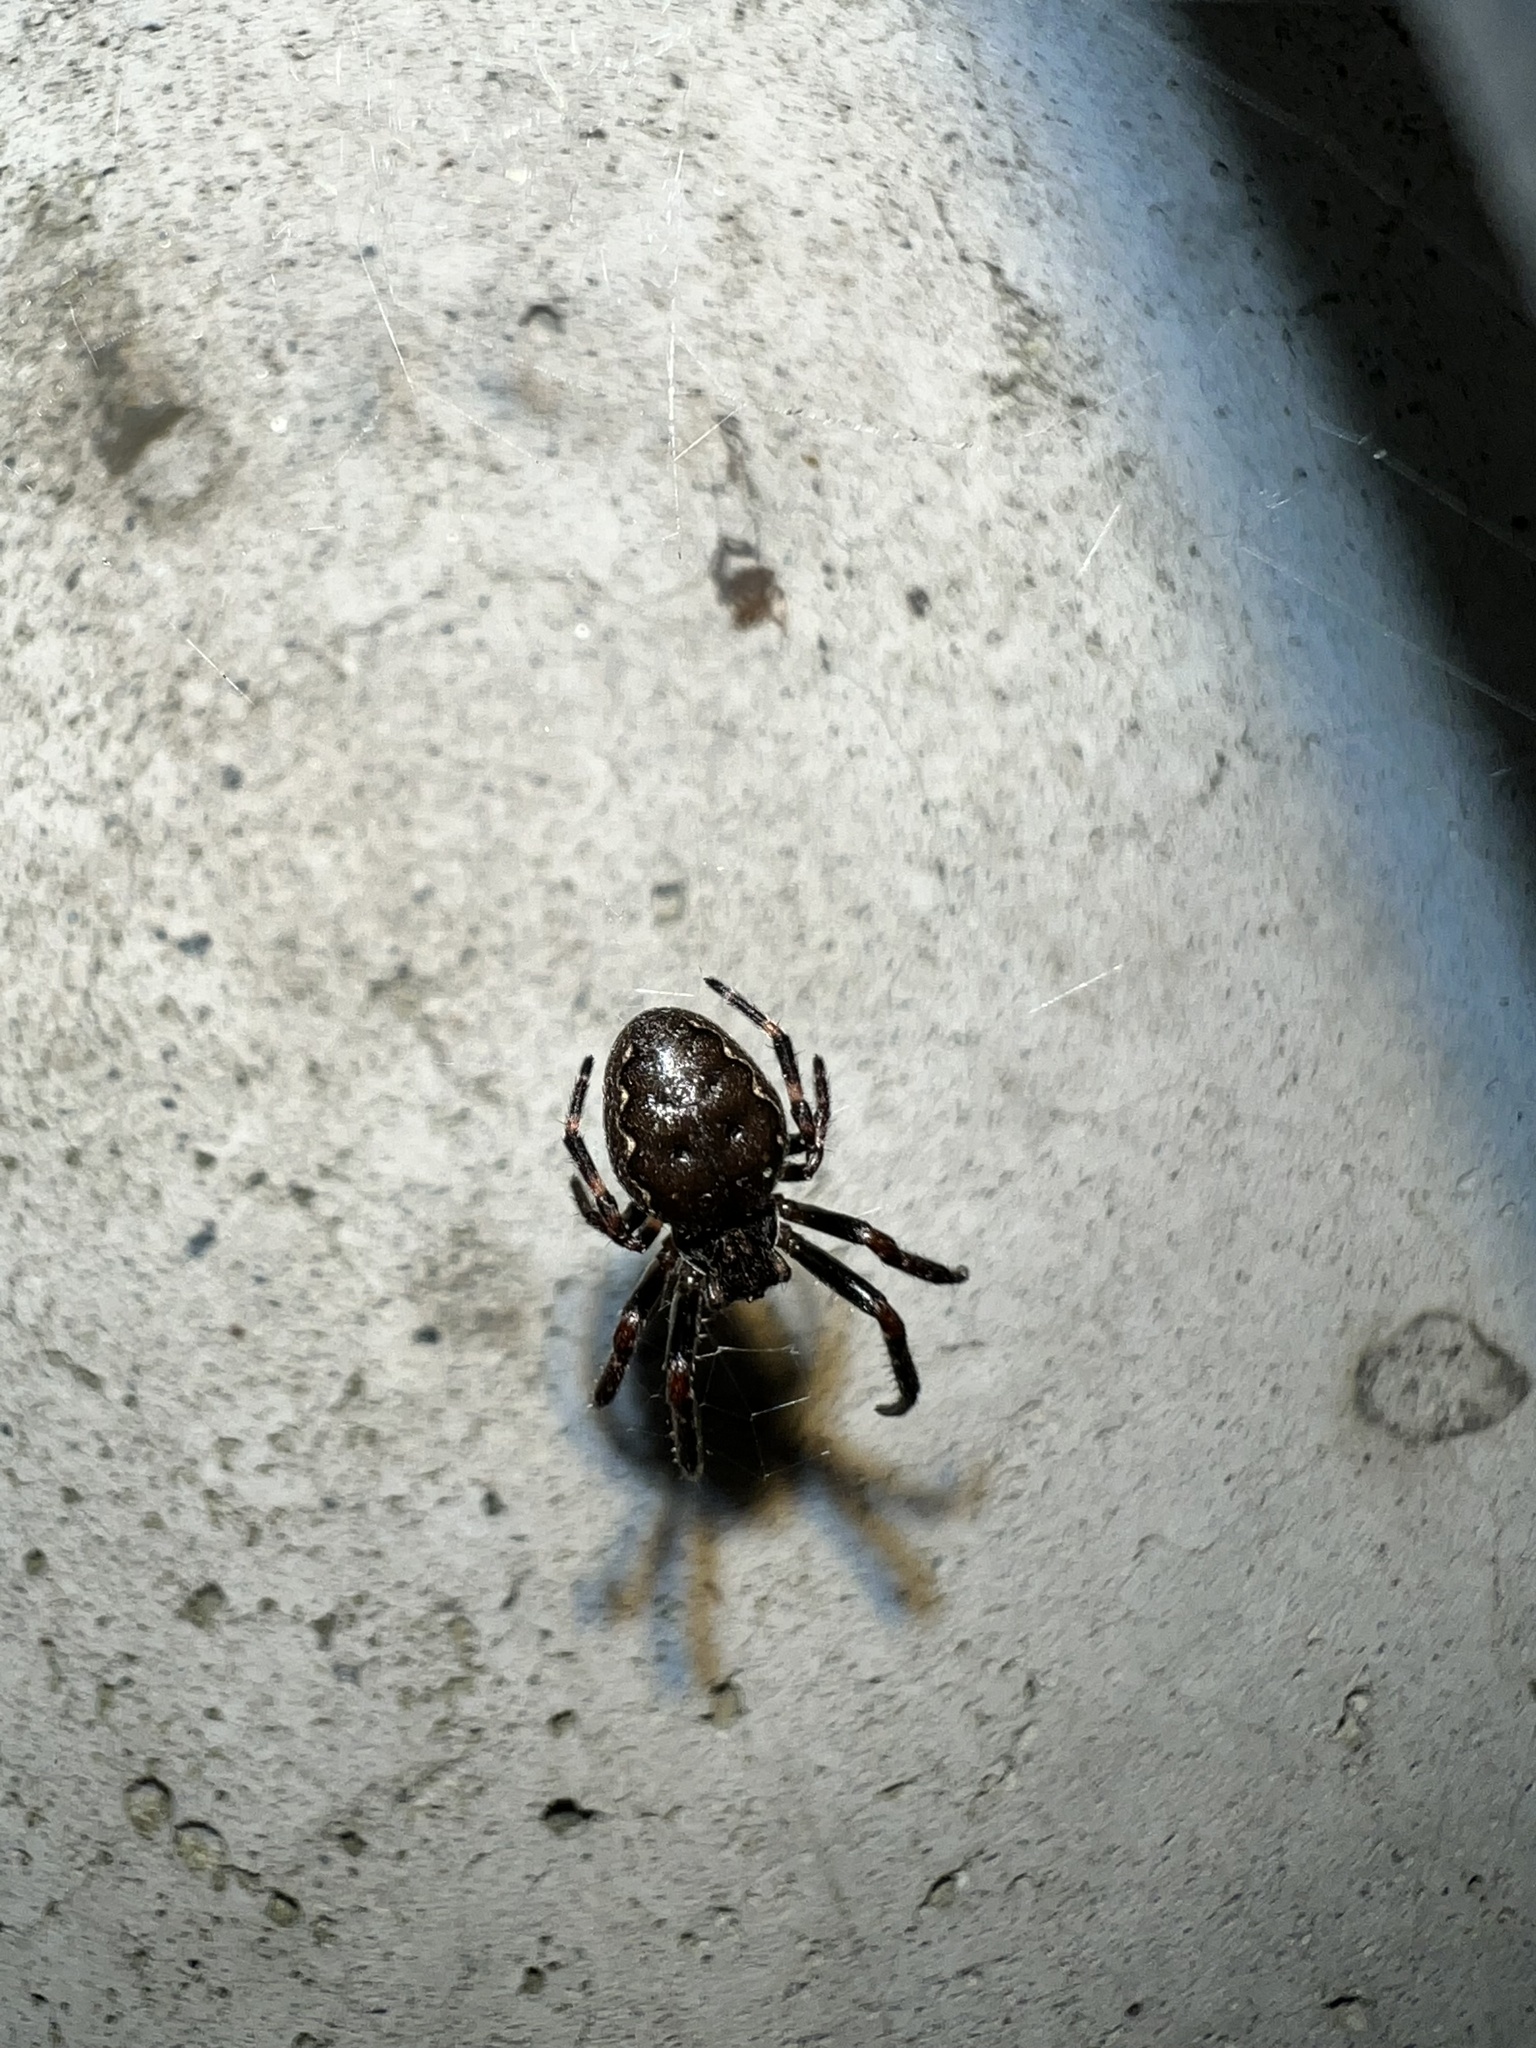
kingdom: Animalia
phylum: Arthropoda
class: Arachnida
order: Araneae
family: Araneidae
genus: Nuctenea
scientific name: Nuctenea umbratica
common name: Toad spider
